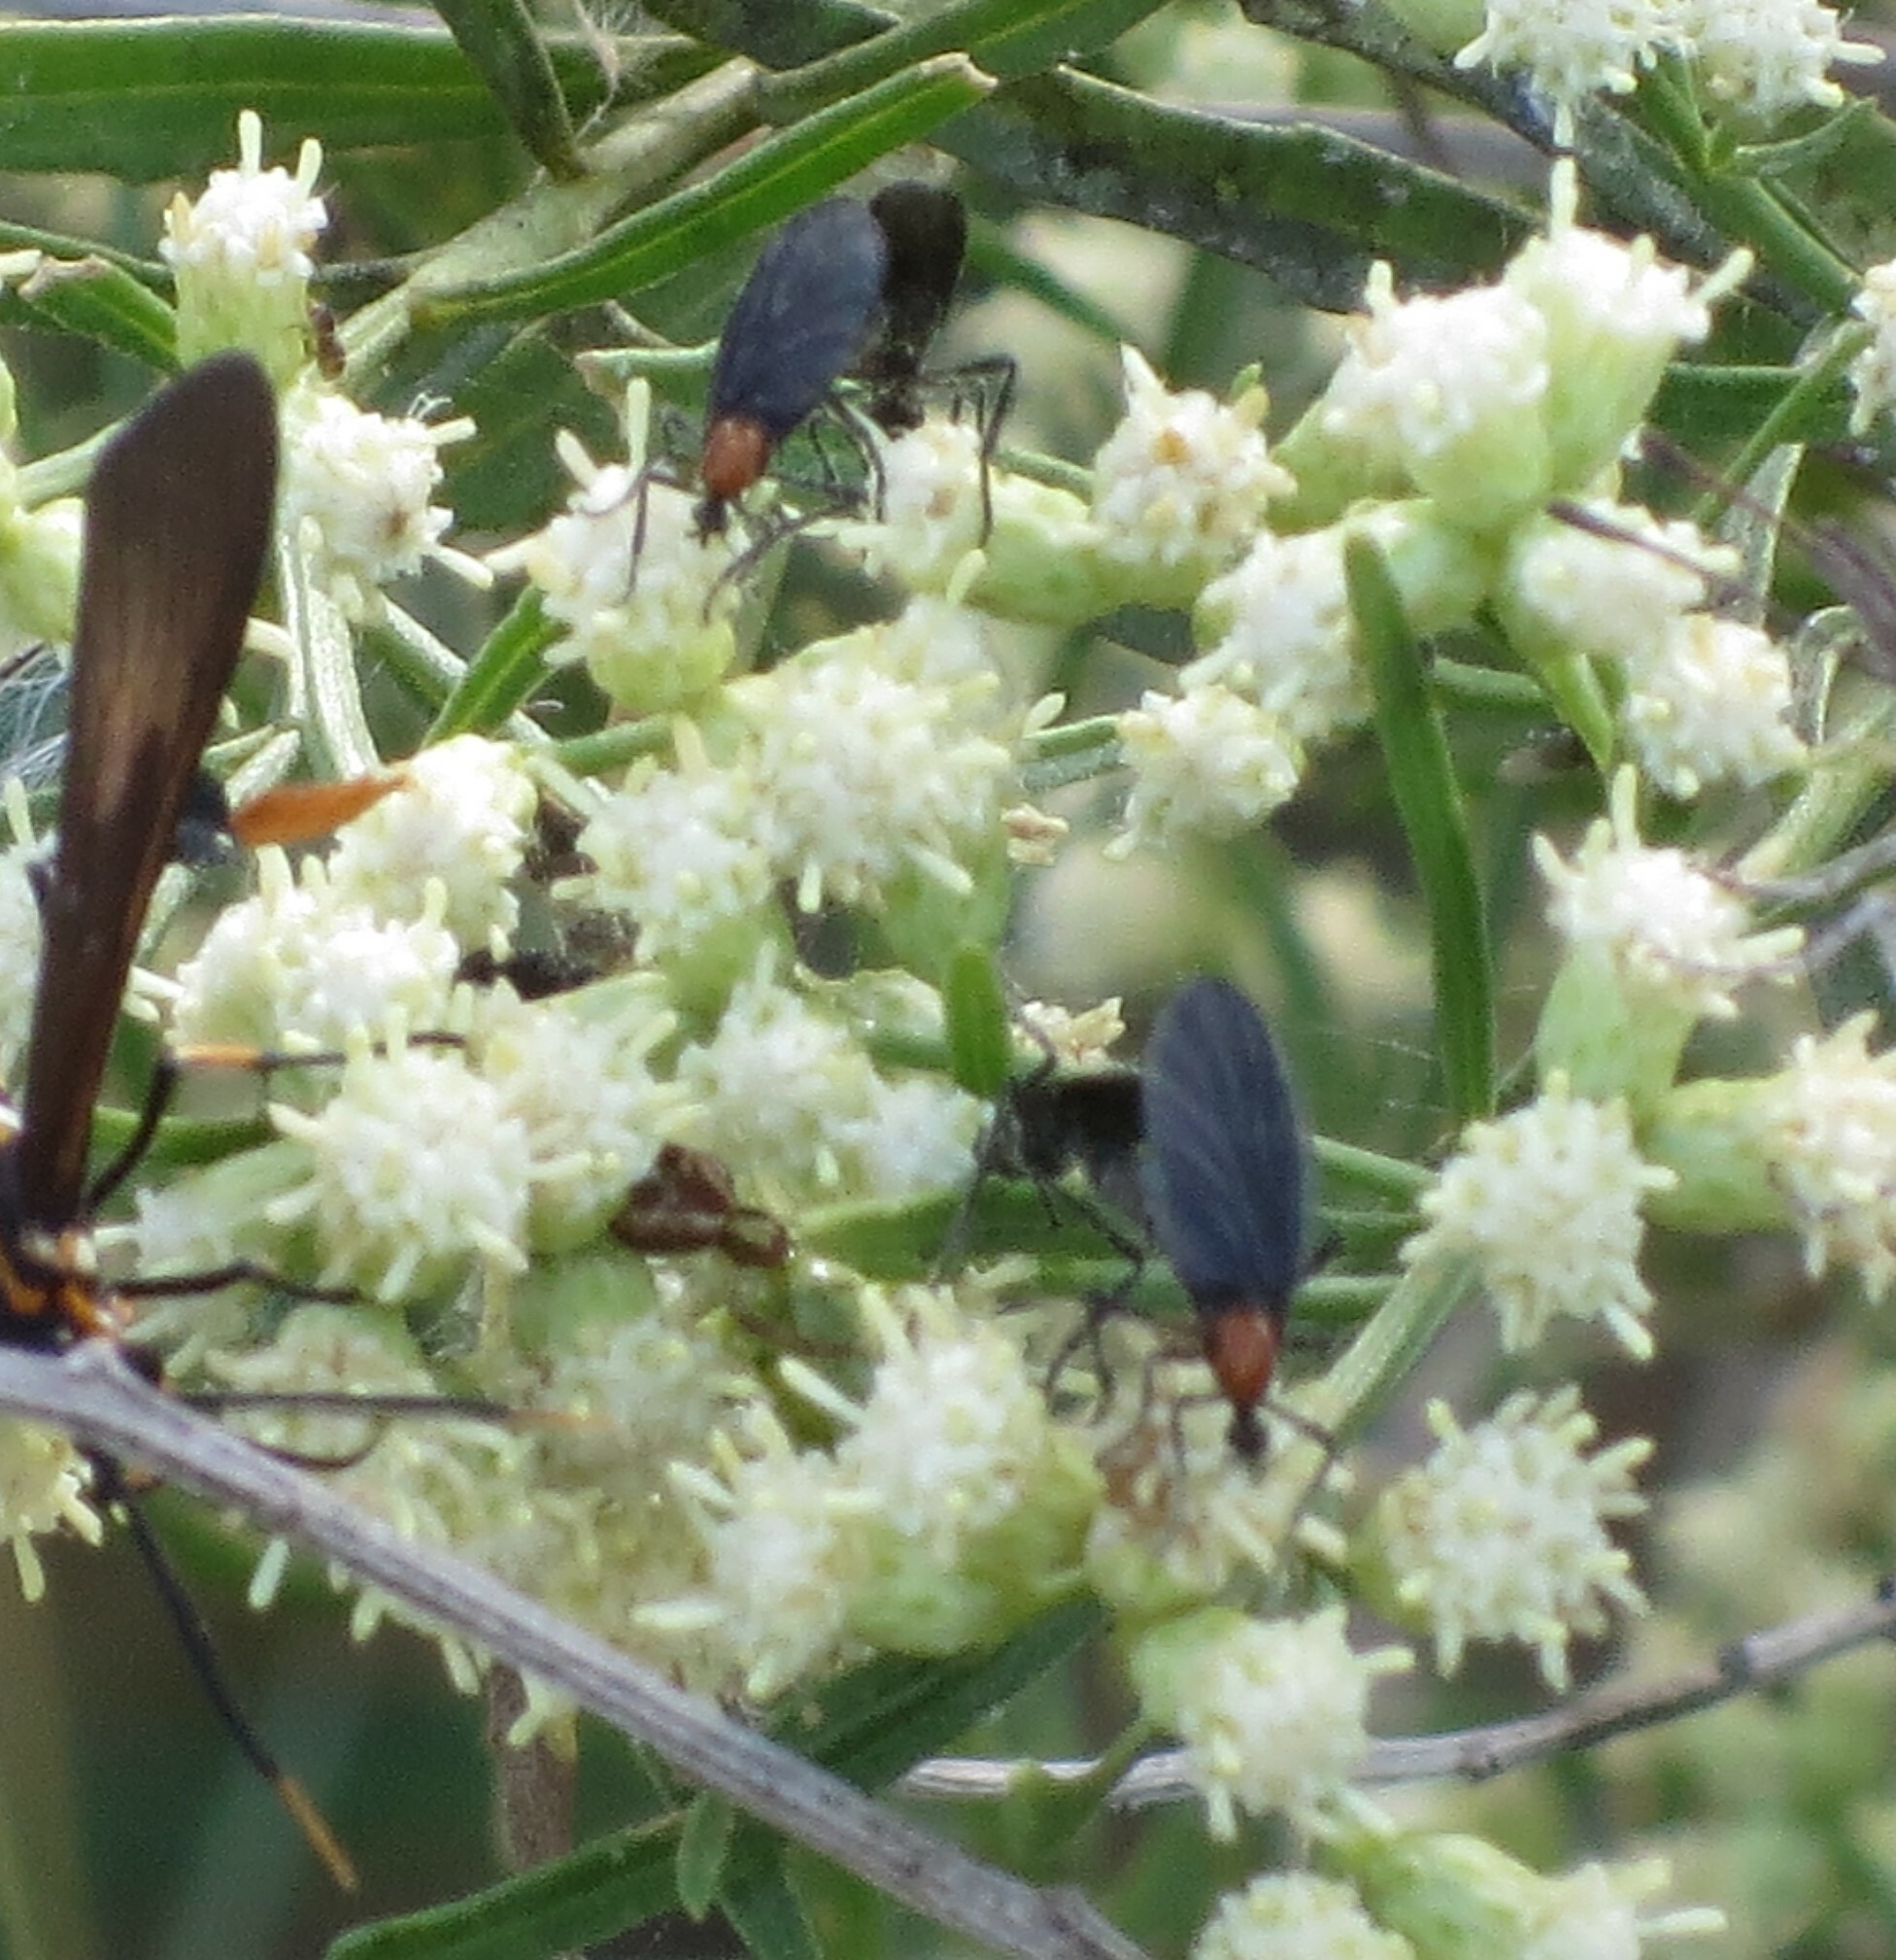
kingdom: Animalia
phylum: Arthropoda
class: Insecta
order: Diptera
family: Bibionidae
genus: Plecia
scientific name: Plecia nearctica
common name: March fly
